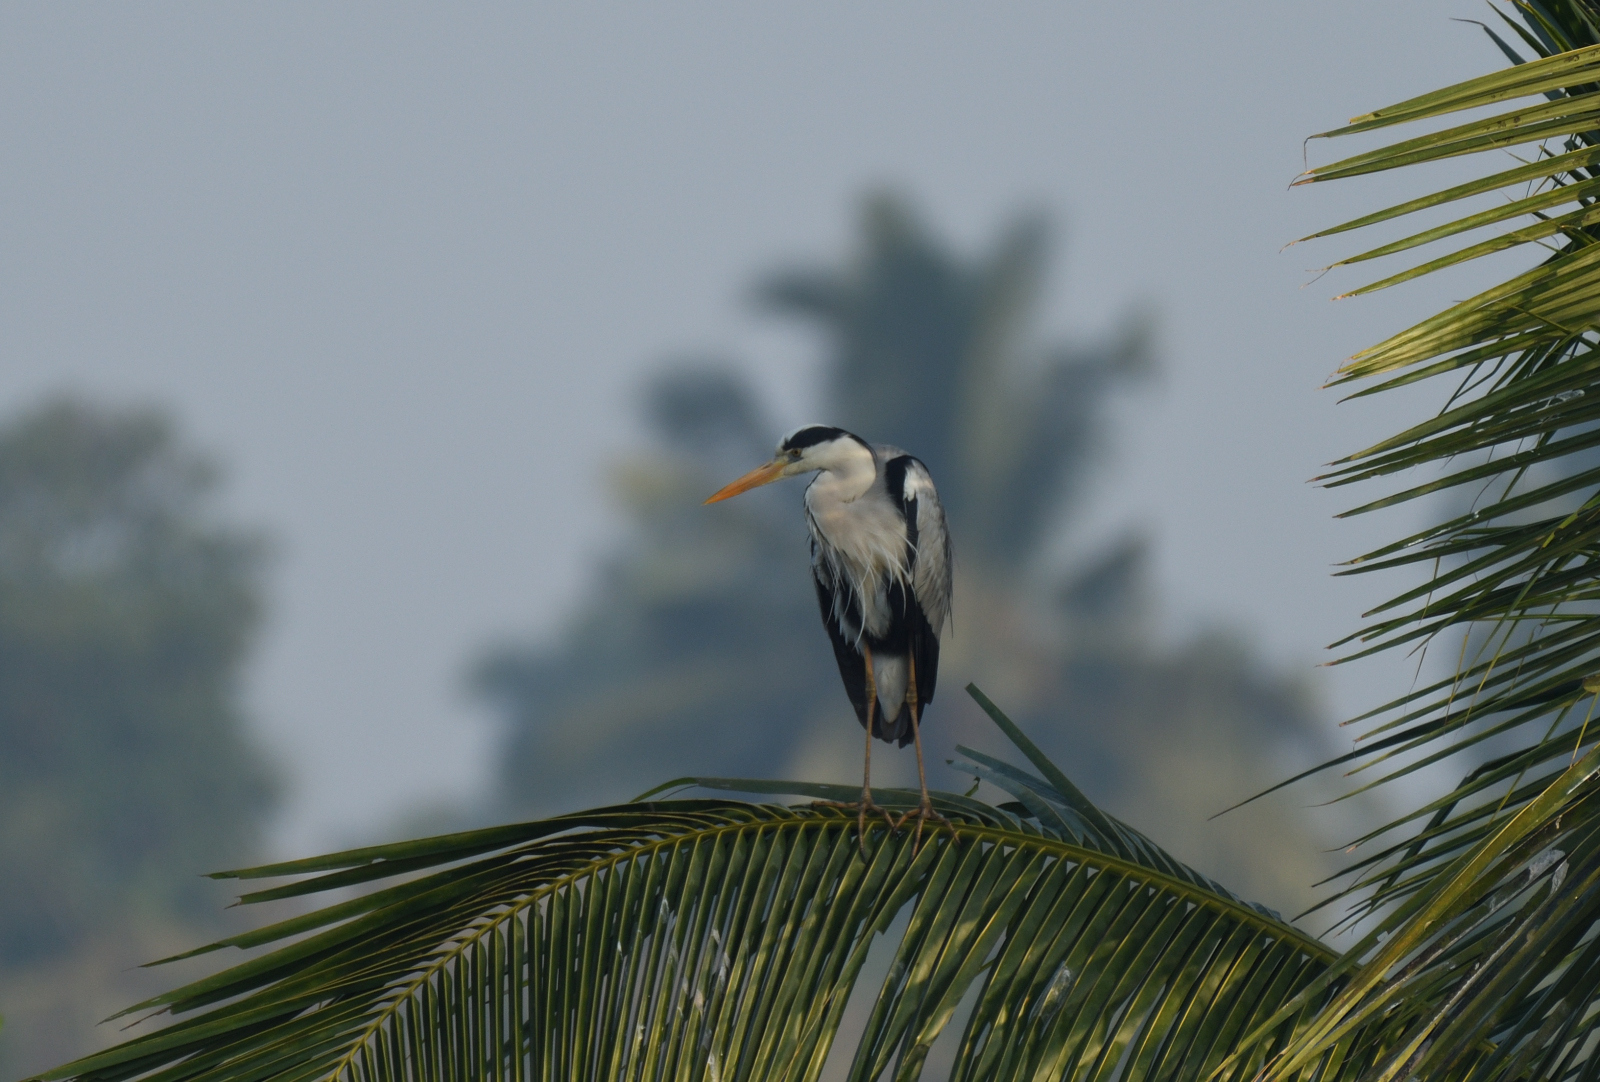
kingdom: Animalia
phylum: Chordata
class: Aves
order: Pelecaniformes
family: Ardeidae
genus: Ardea
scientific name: Ardea cinerea
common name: Grey heron
